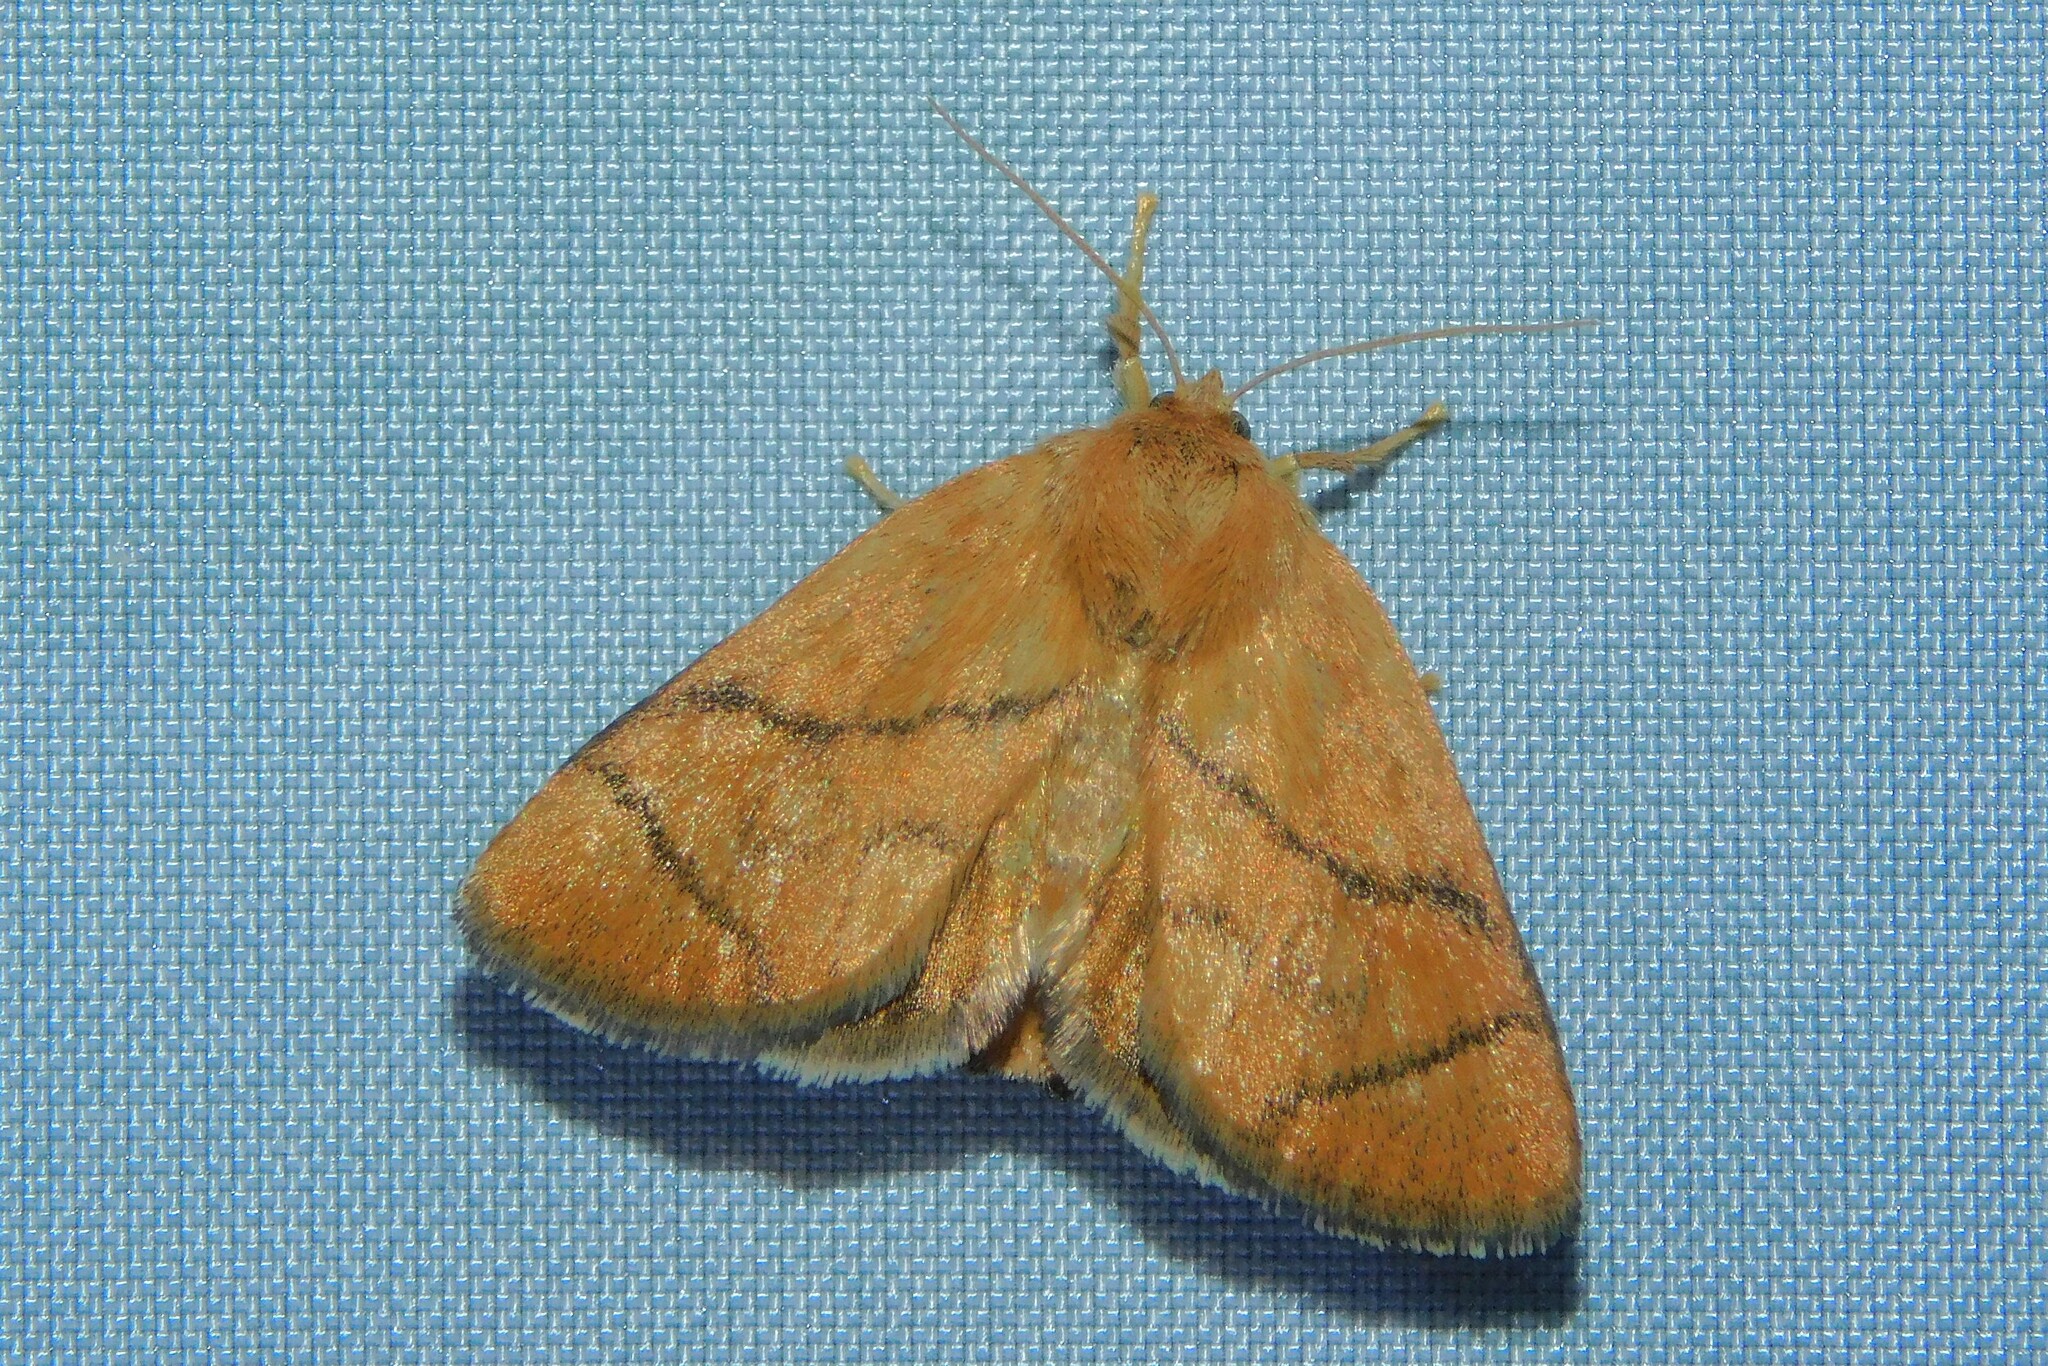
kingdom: Animalia
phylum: Arthropoda
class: Insecta
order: Lepidoptera
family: Limacodidae
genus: Apoda
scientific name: Apoda limacodes
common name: Festoon
